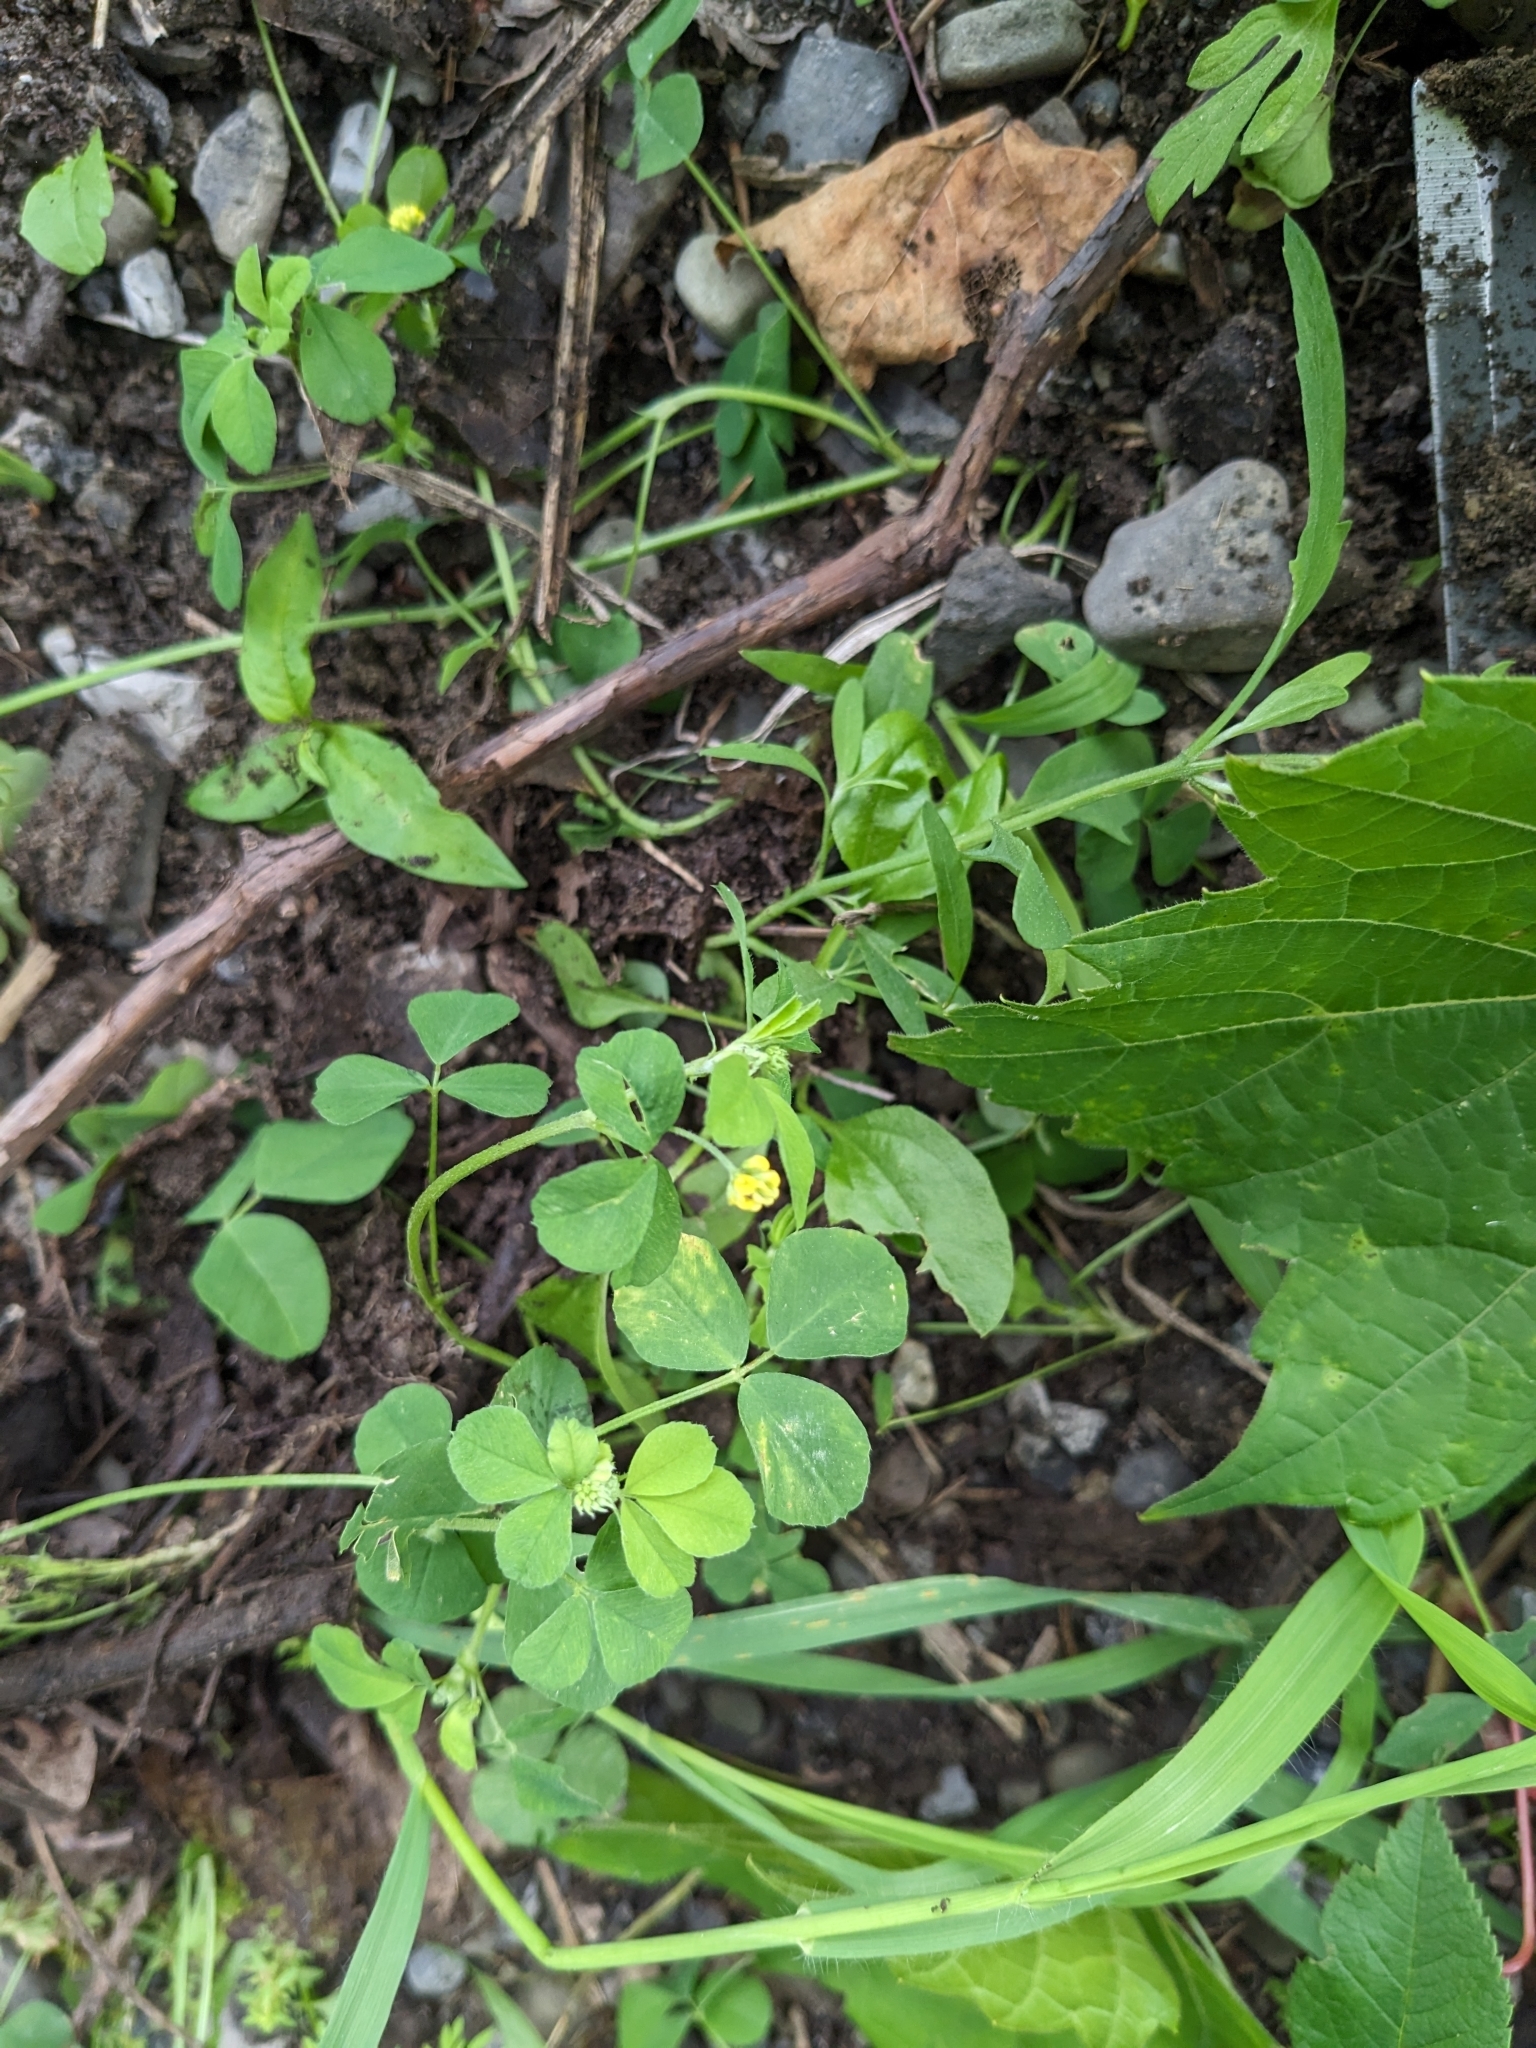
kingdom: Plantae
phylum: Tracheophyta
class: Magnoliopsida
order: Fabales
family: Fabaceae
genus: Medicago
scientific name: Medicago lupulina
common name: Black medick
